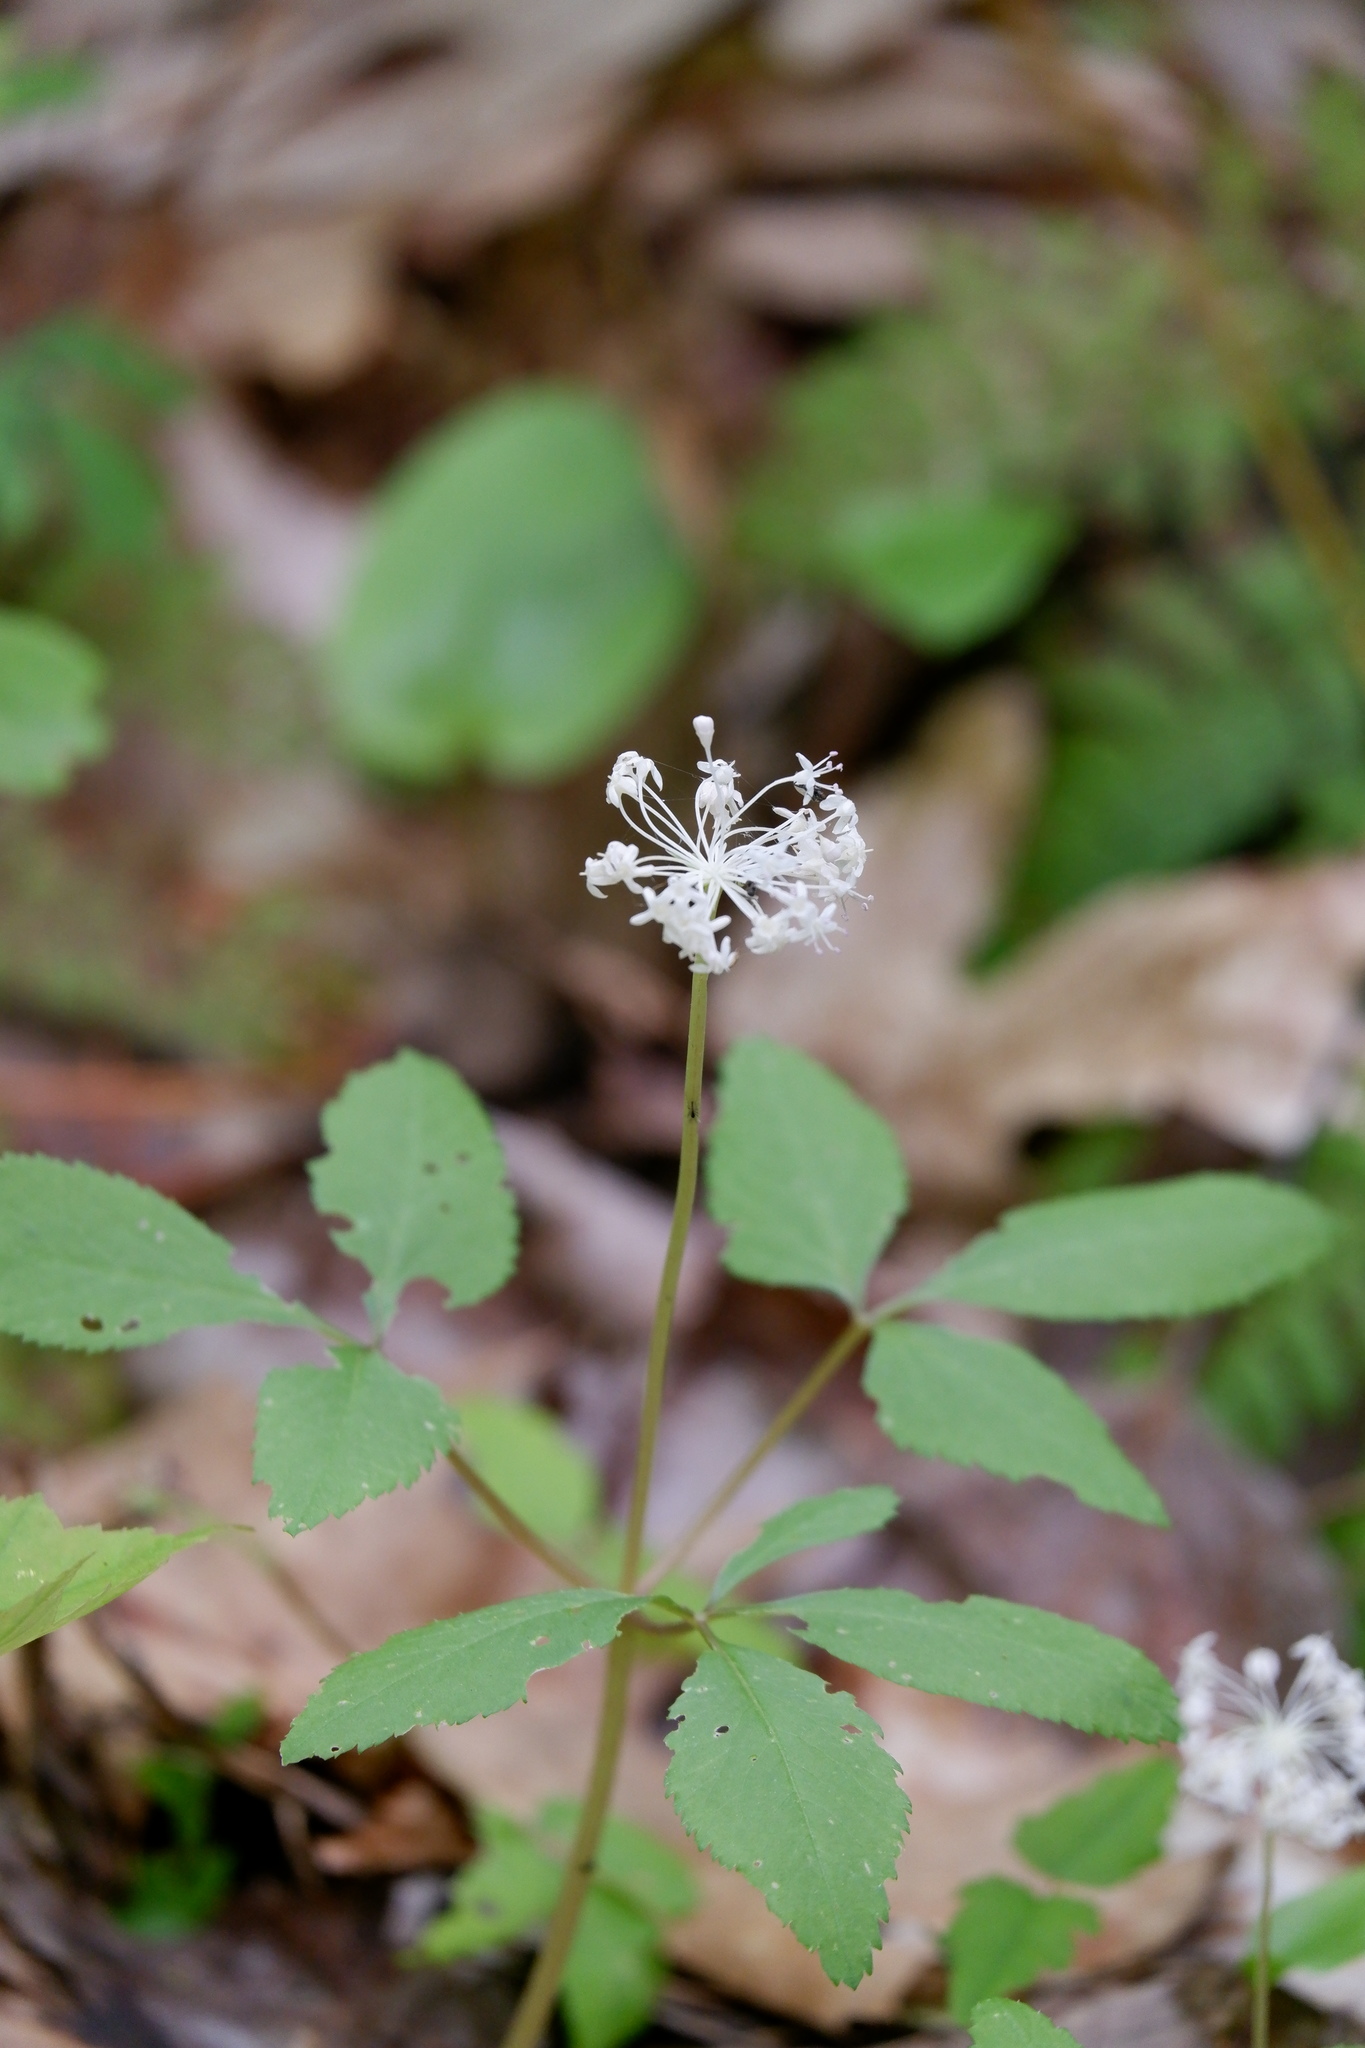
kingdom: Plantae
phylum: Tracheophyta
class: Magnoliopsida
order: Apiales
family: Araliaceae
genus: Panax
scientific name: Panax trifolius
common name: Dwarf ginseng
